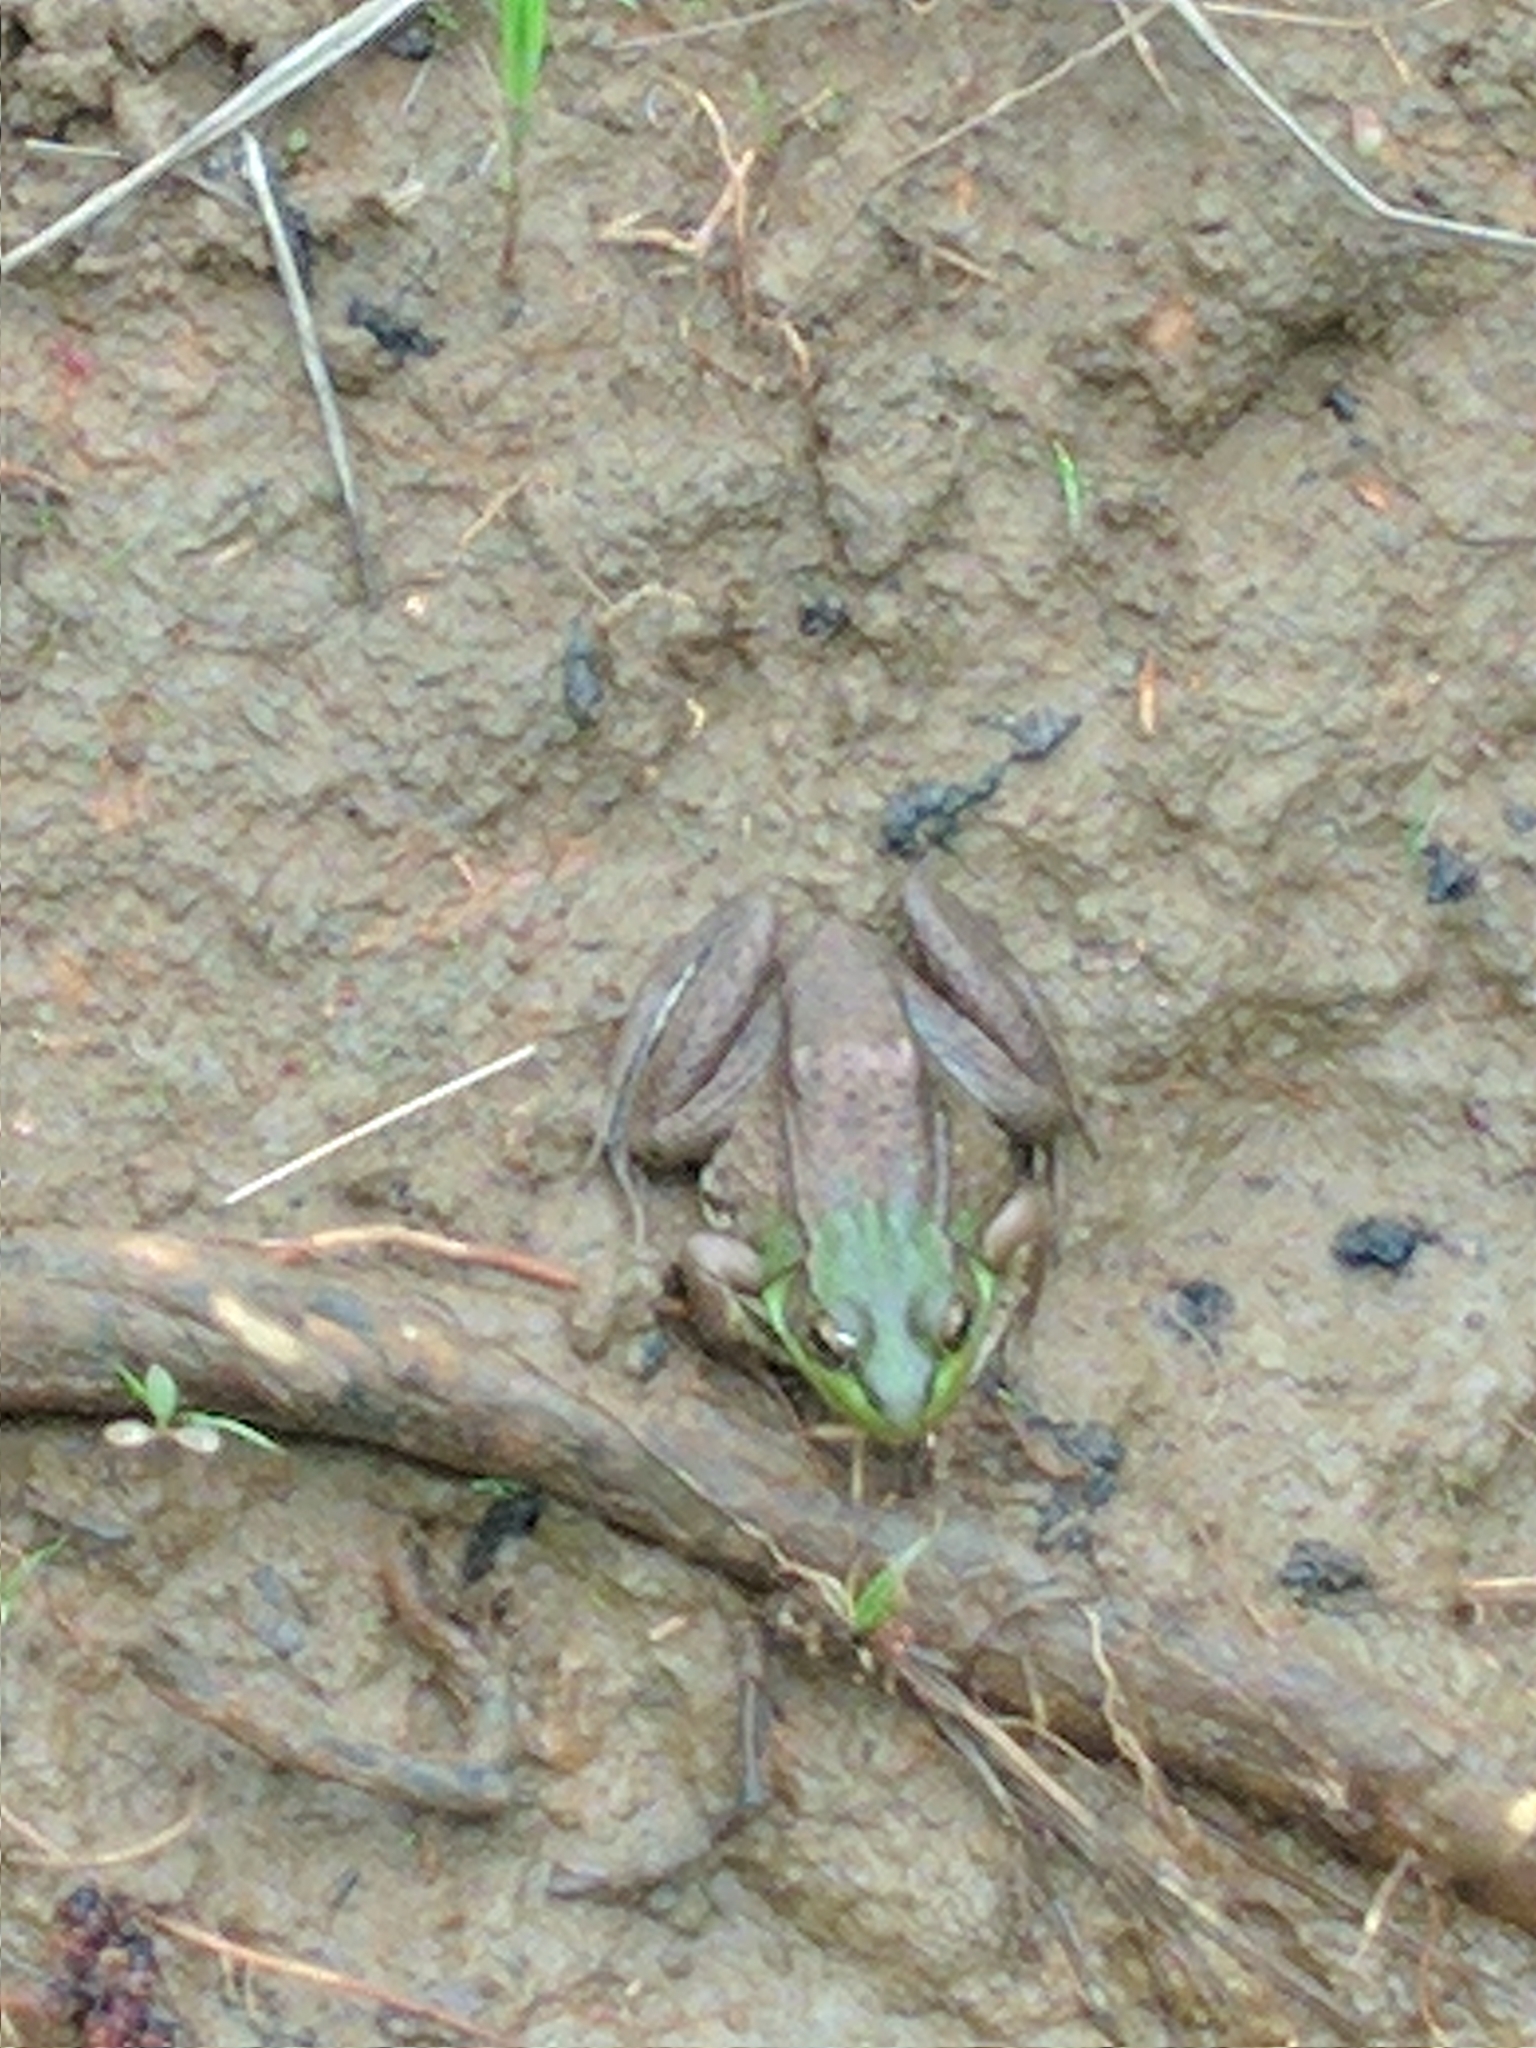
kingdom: Animalia
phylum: Chordata
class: Amphibia
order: Anura
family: Ranidae
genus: Lithobates
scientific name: Lithobates clamitans
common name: Green frog
